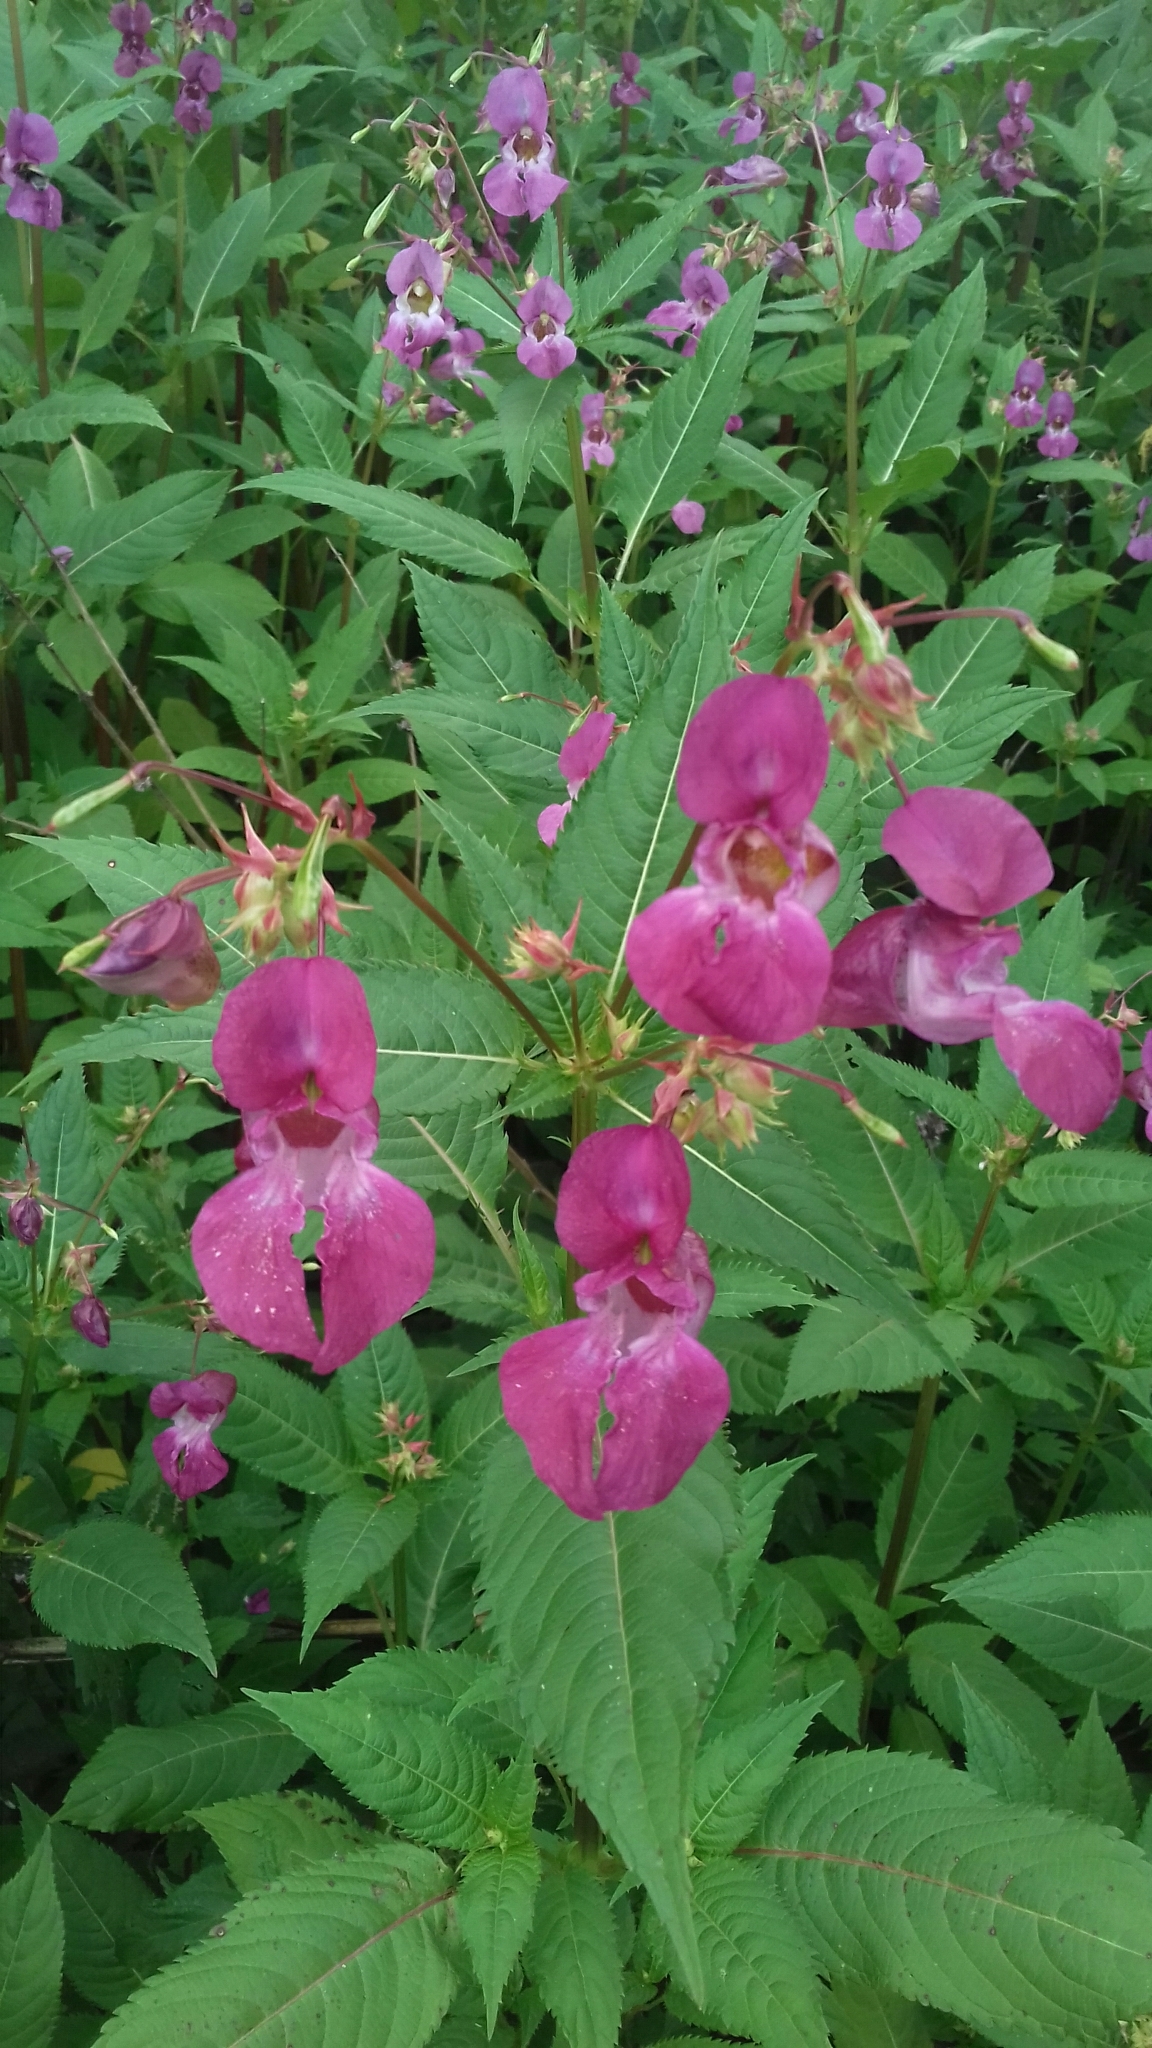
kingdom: Plantae
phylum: Tracheophyta
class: Magnoliopsida
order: Ericales
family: Balsaminaceae
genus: Impatiens
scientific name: Impatiens glandulifera
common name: Himalayan balsam
